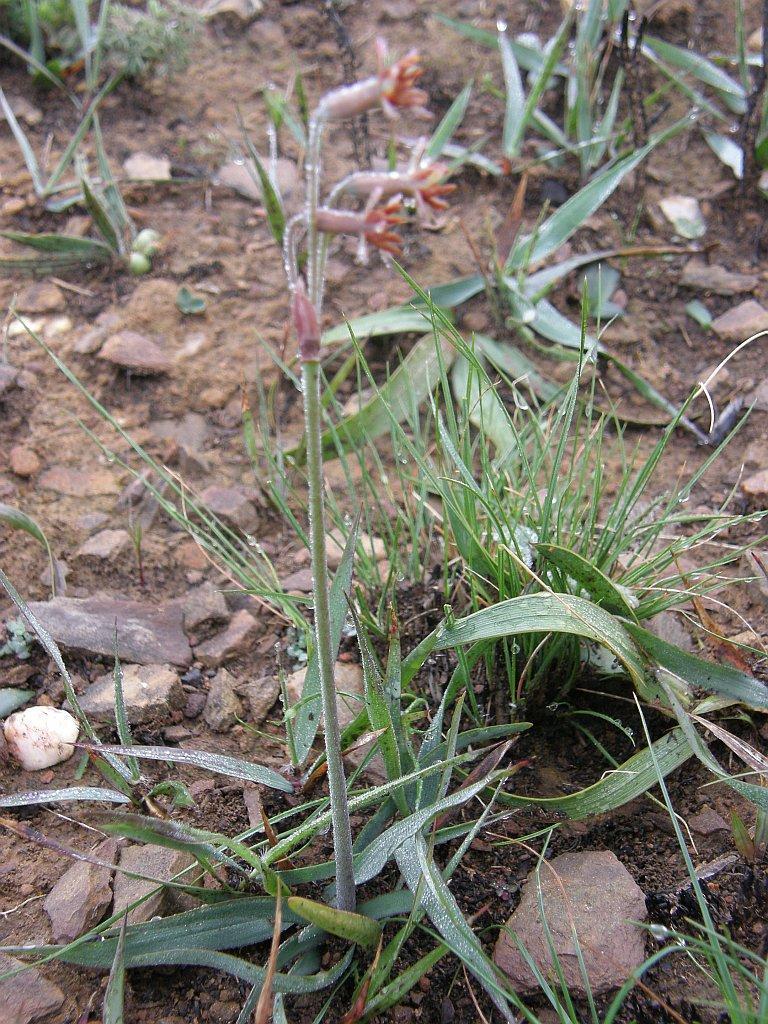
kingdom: Plantae
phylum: Tracheophyta
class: Liliopsida
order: Asparagales
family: Amaryllidaceae
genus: Tulbaghia
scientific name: Tulbaghia capensis
